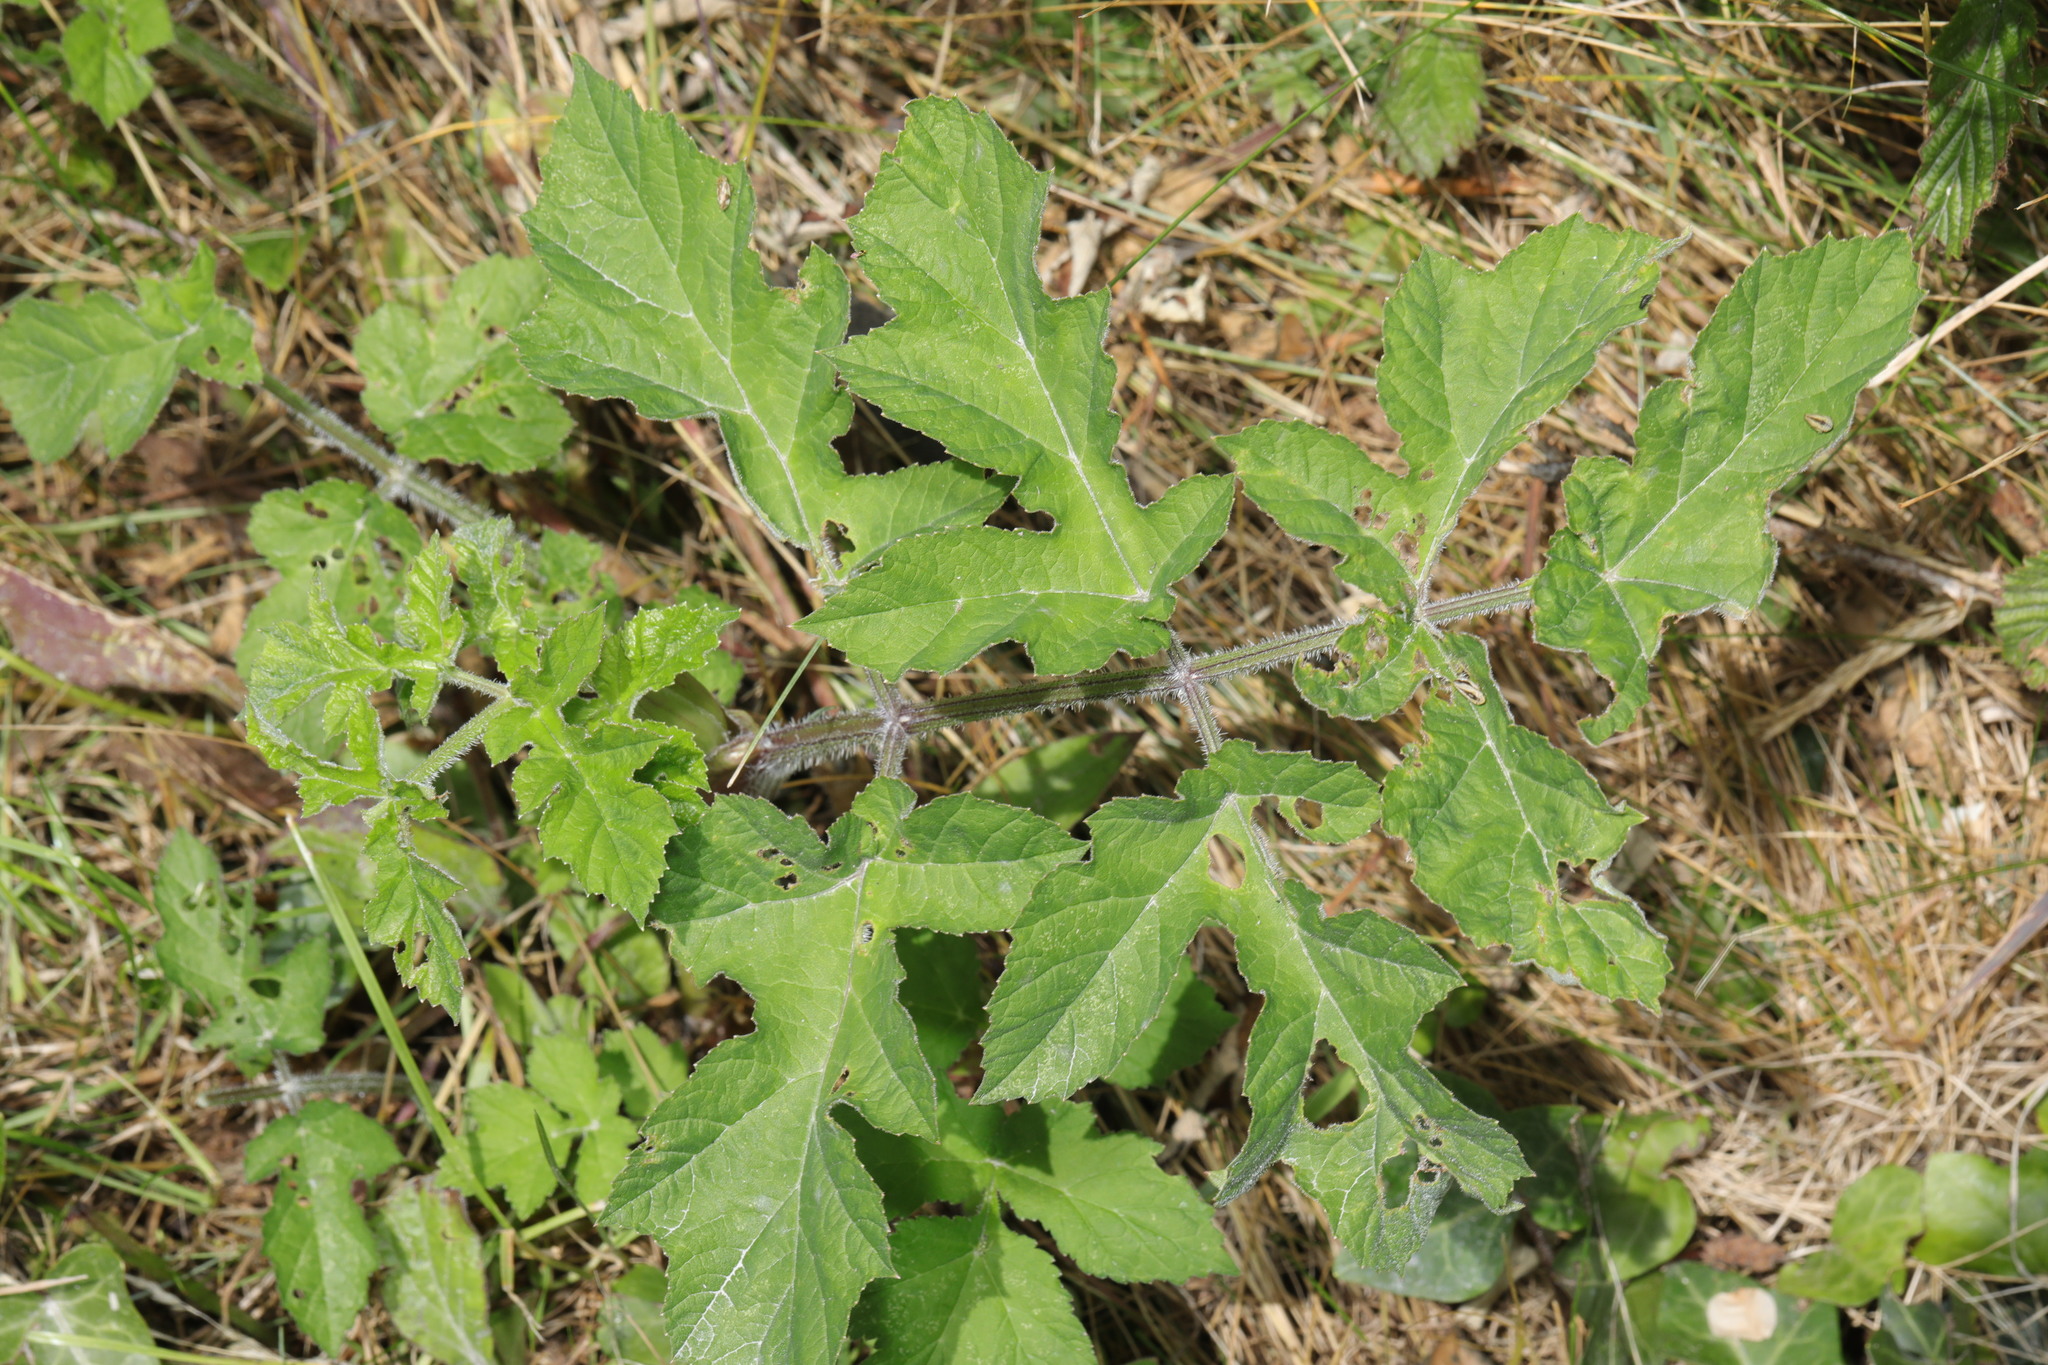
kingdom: Plantae
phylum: Tracheophyta
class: Magnoliopsida
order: Apiales
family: Apiaceae
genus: Heracleum
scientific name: Heracleum sphondylium
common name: Hogweed
